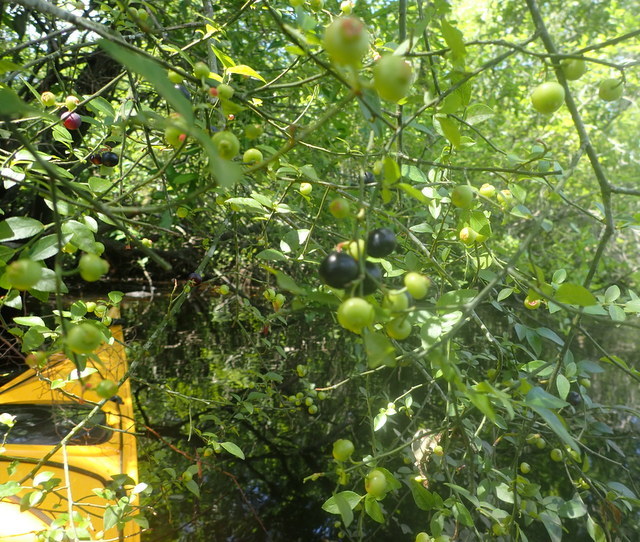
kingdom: Plantae
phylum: Tracheophyta
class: Magnoliopsida
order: Ericales
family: Ericaceae
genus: Vaccinium
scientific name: Vaccinium corymbosum
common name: Blueberry
